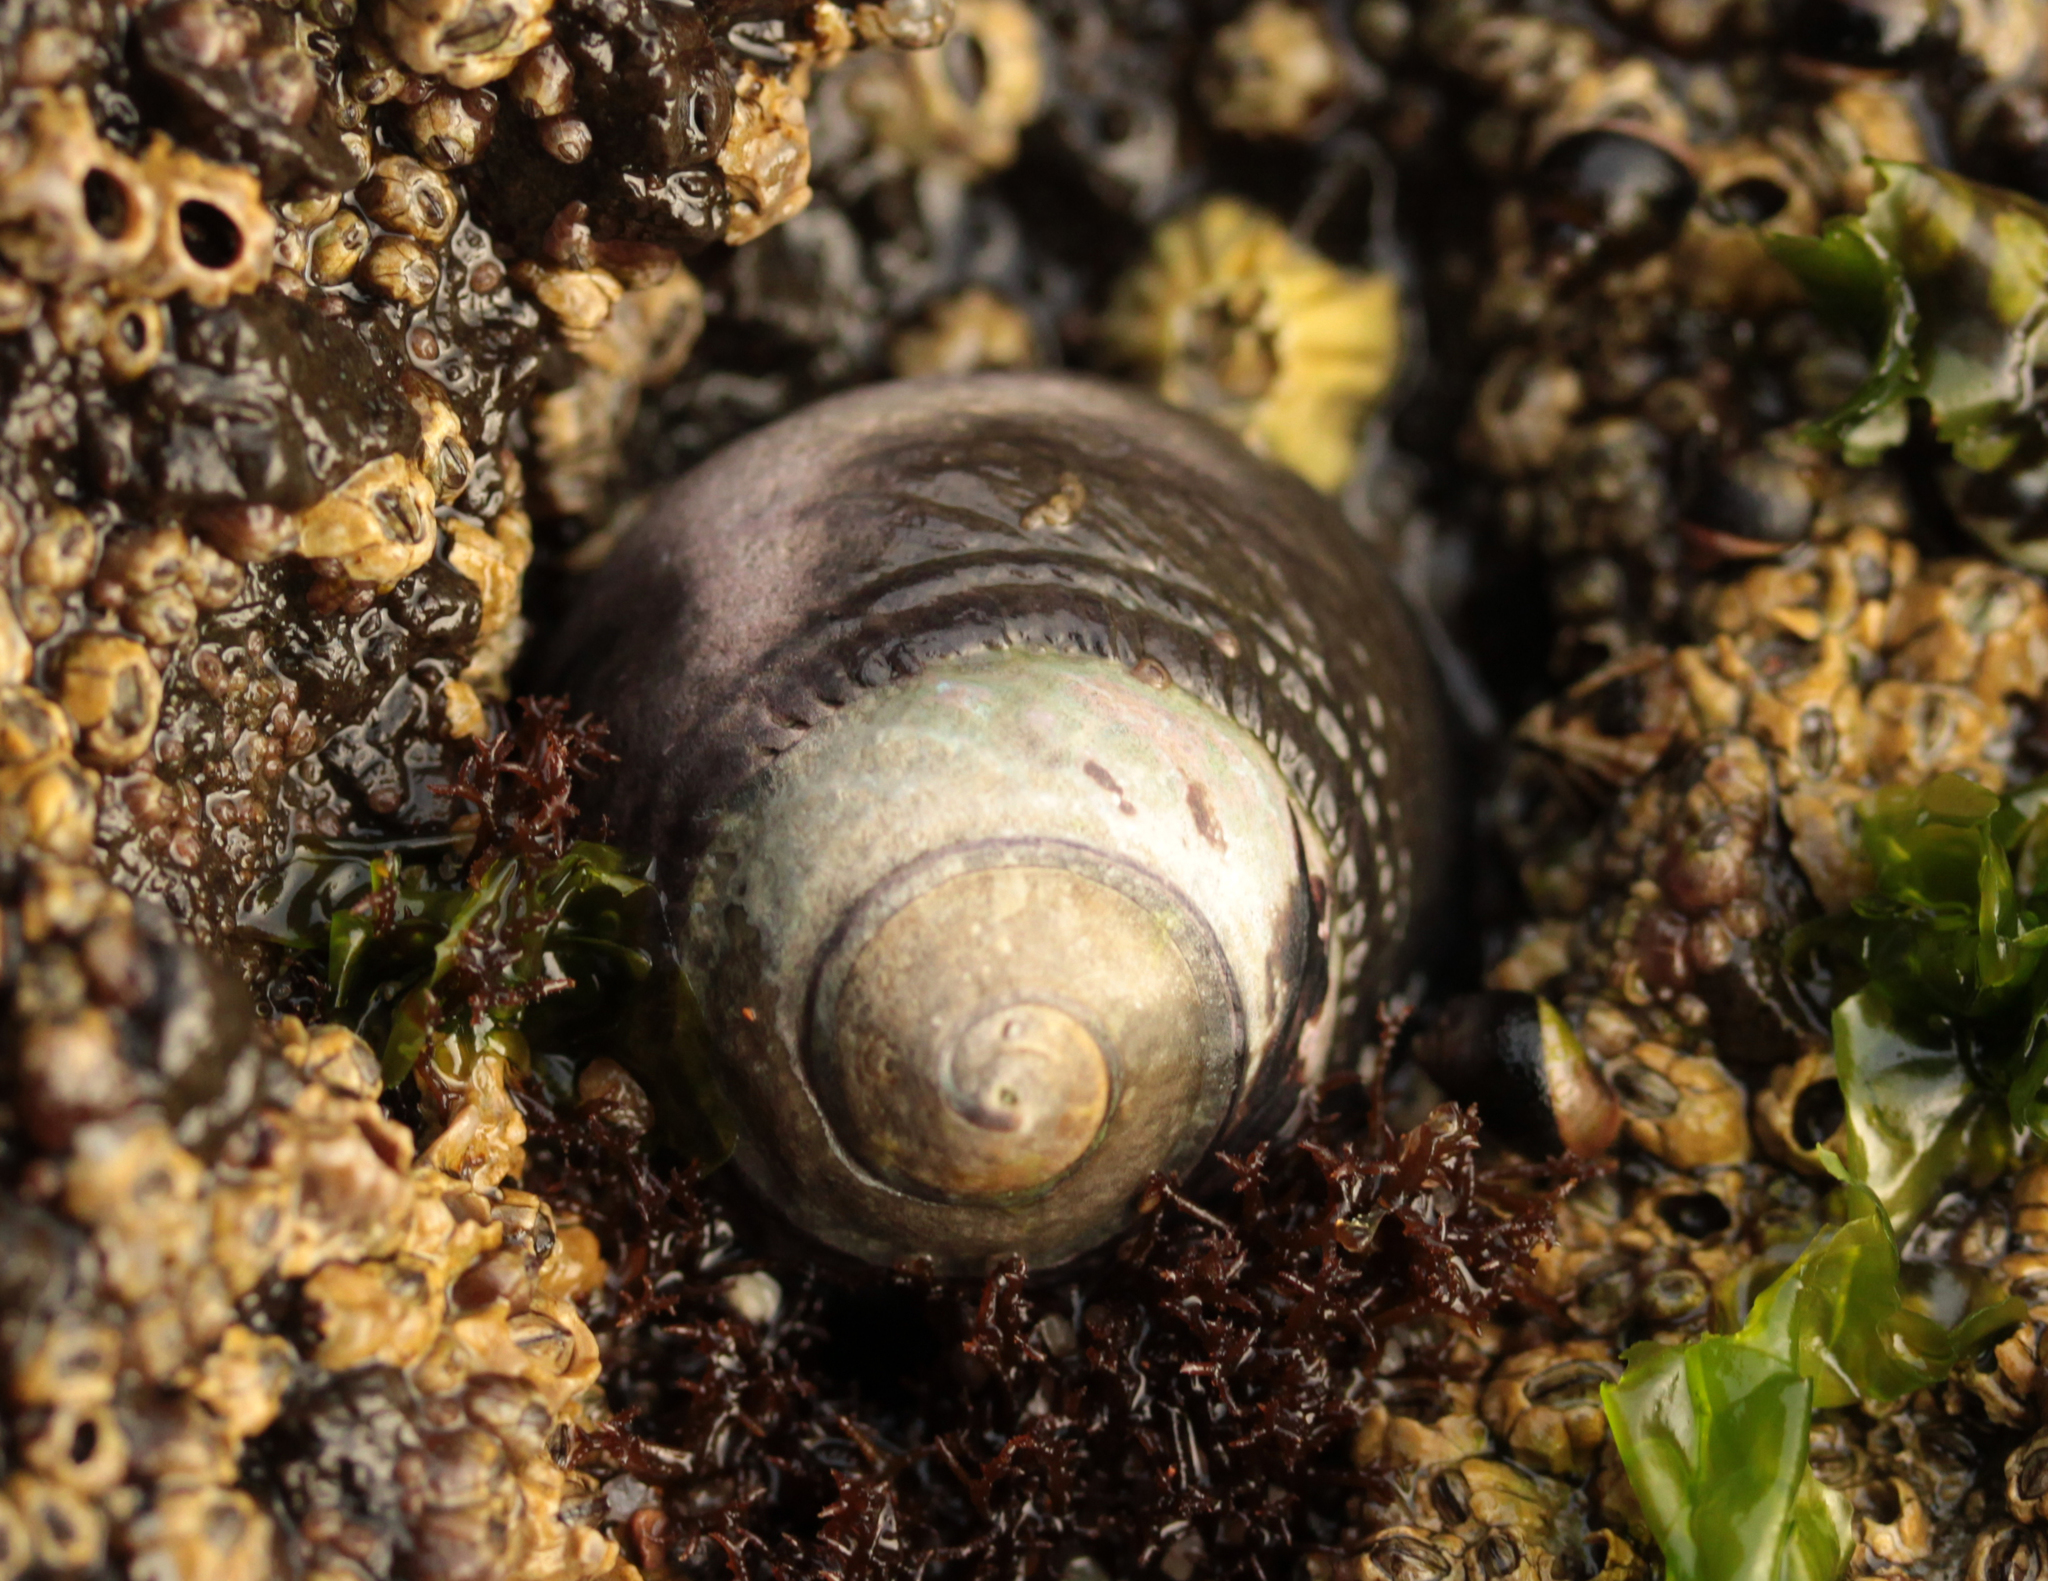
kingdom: Animalia
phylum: Mollusca
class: Gastropoda
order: Trochida
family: Tegulidae
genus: Tegula
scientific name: Tegula funebralis
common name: Black tegula
